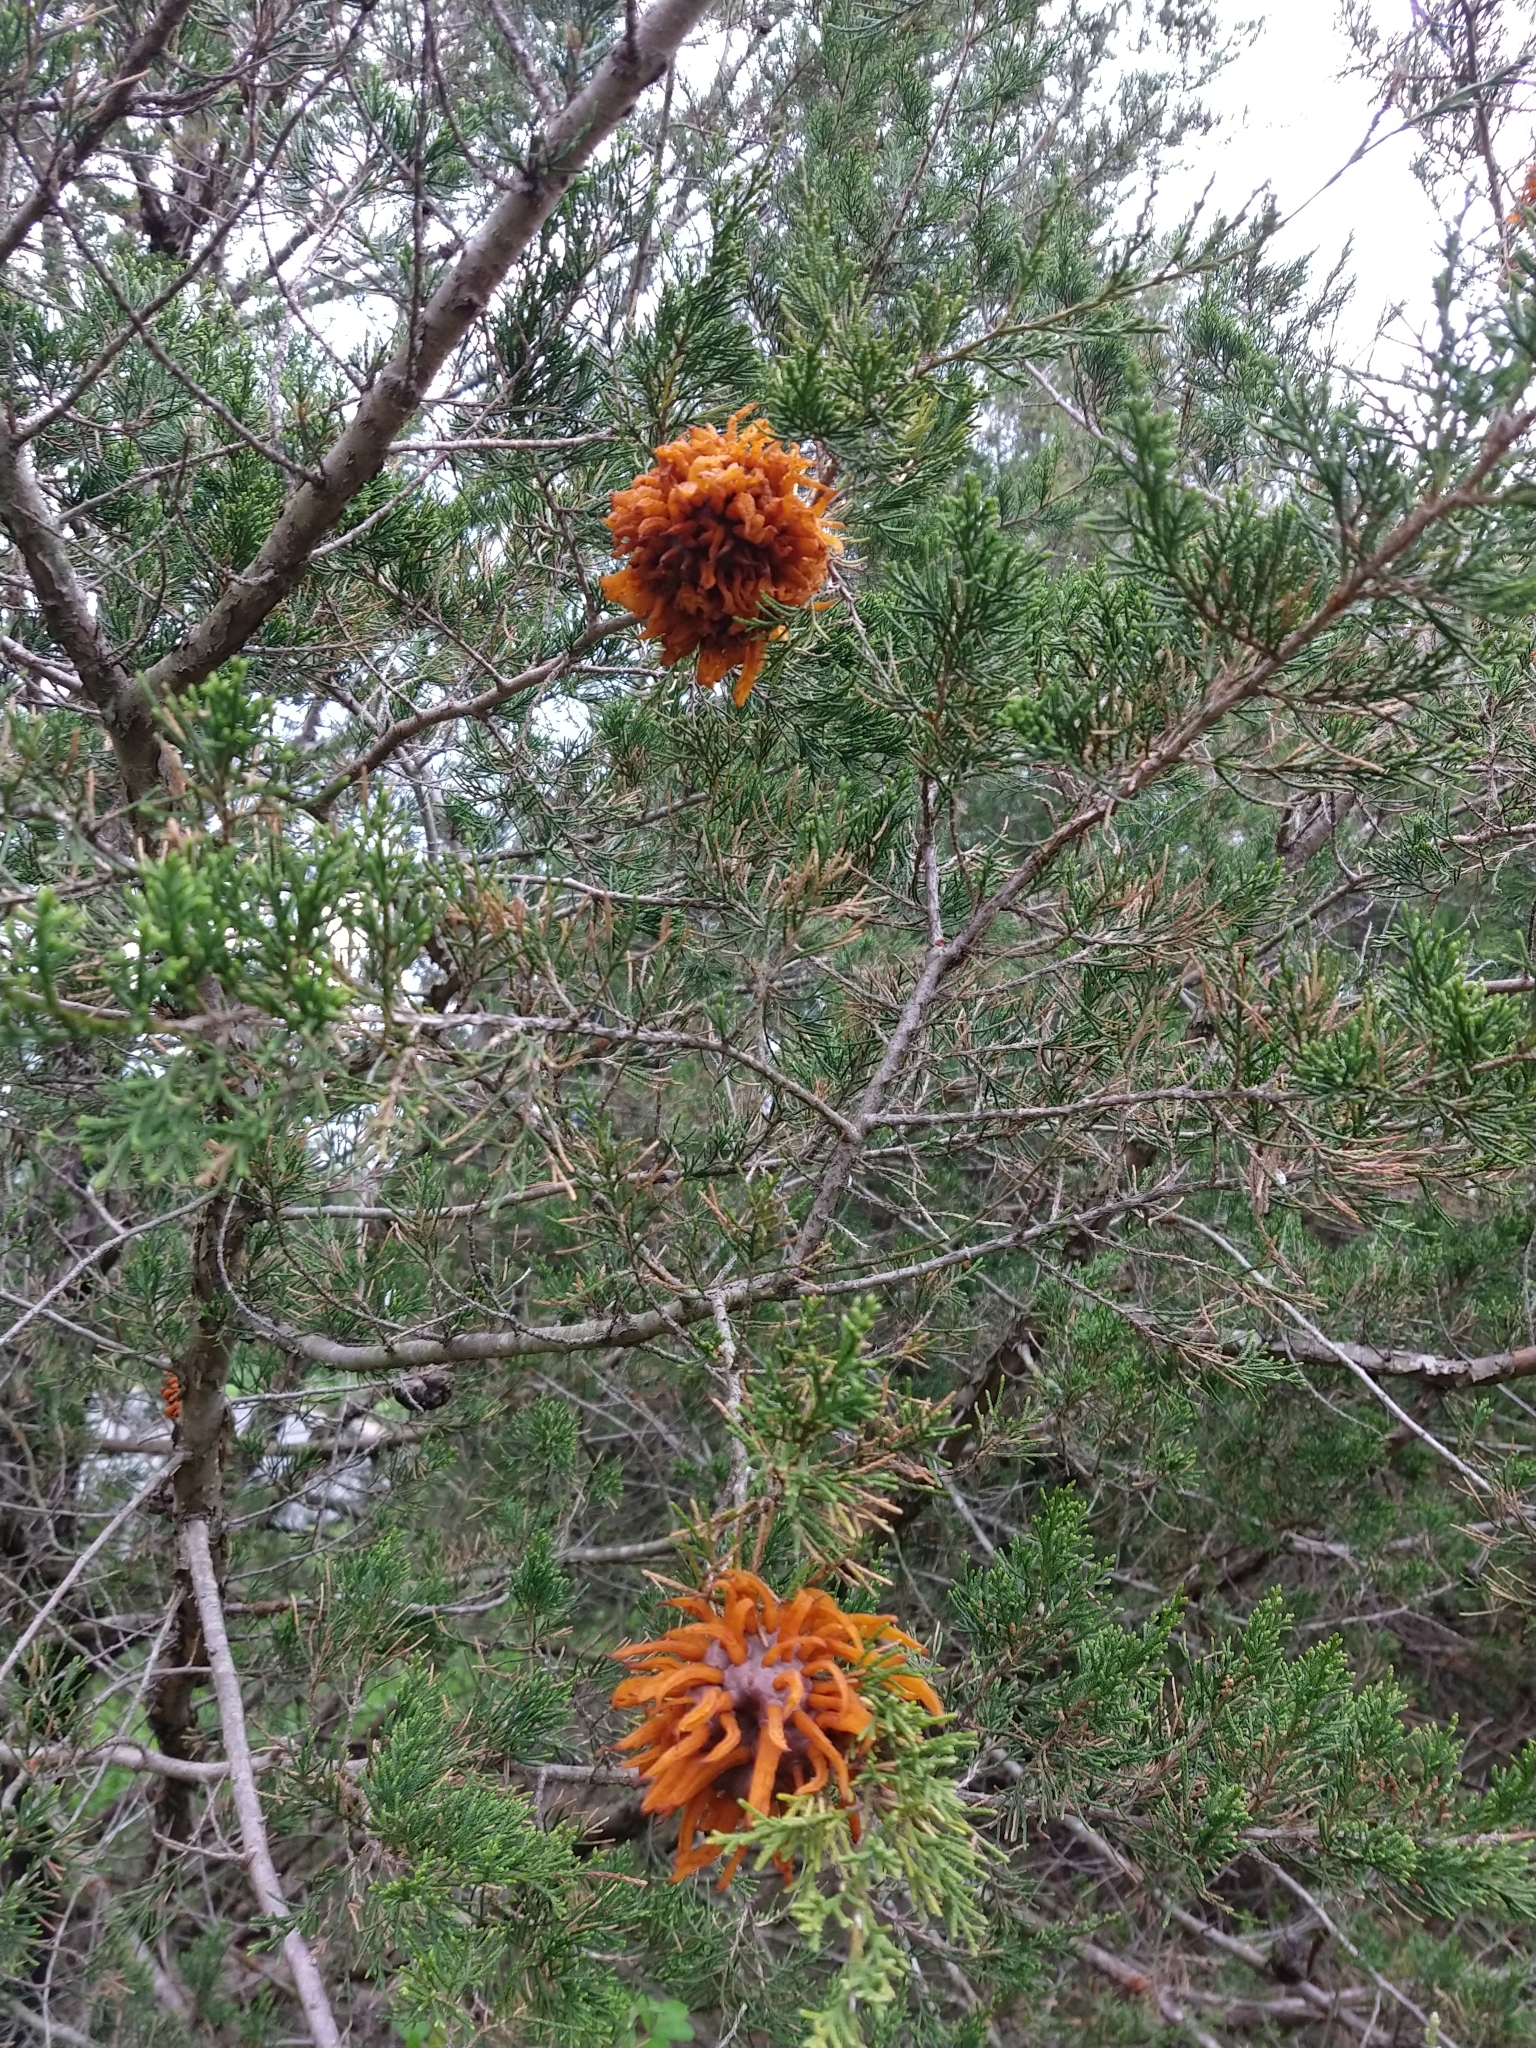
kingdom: Fungi
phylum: Basidiomycota
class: Pucciniomycetes
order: Pucciniales
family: Gymnosporangiaceae
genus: Gymnosporangium
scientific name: Gymnosporangium juniperi-virginianae
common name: Juniper-apple rust
